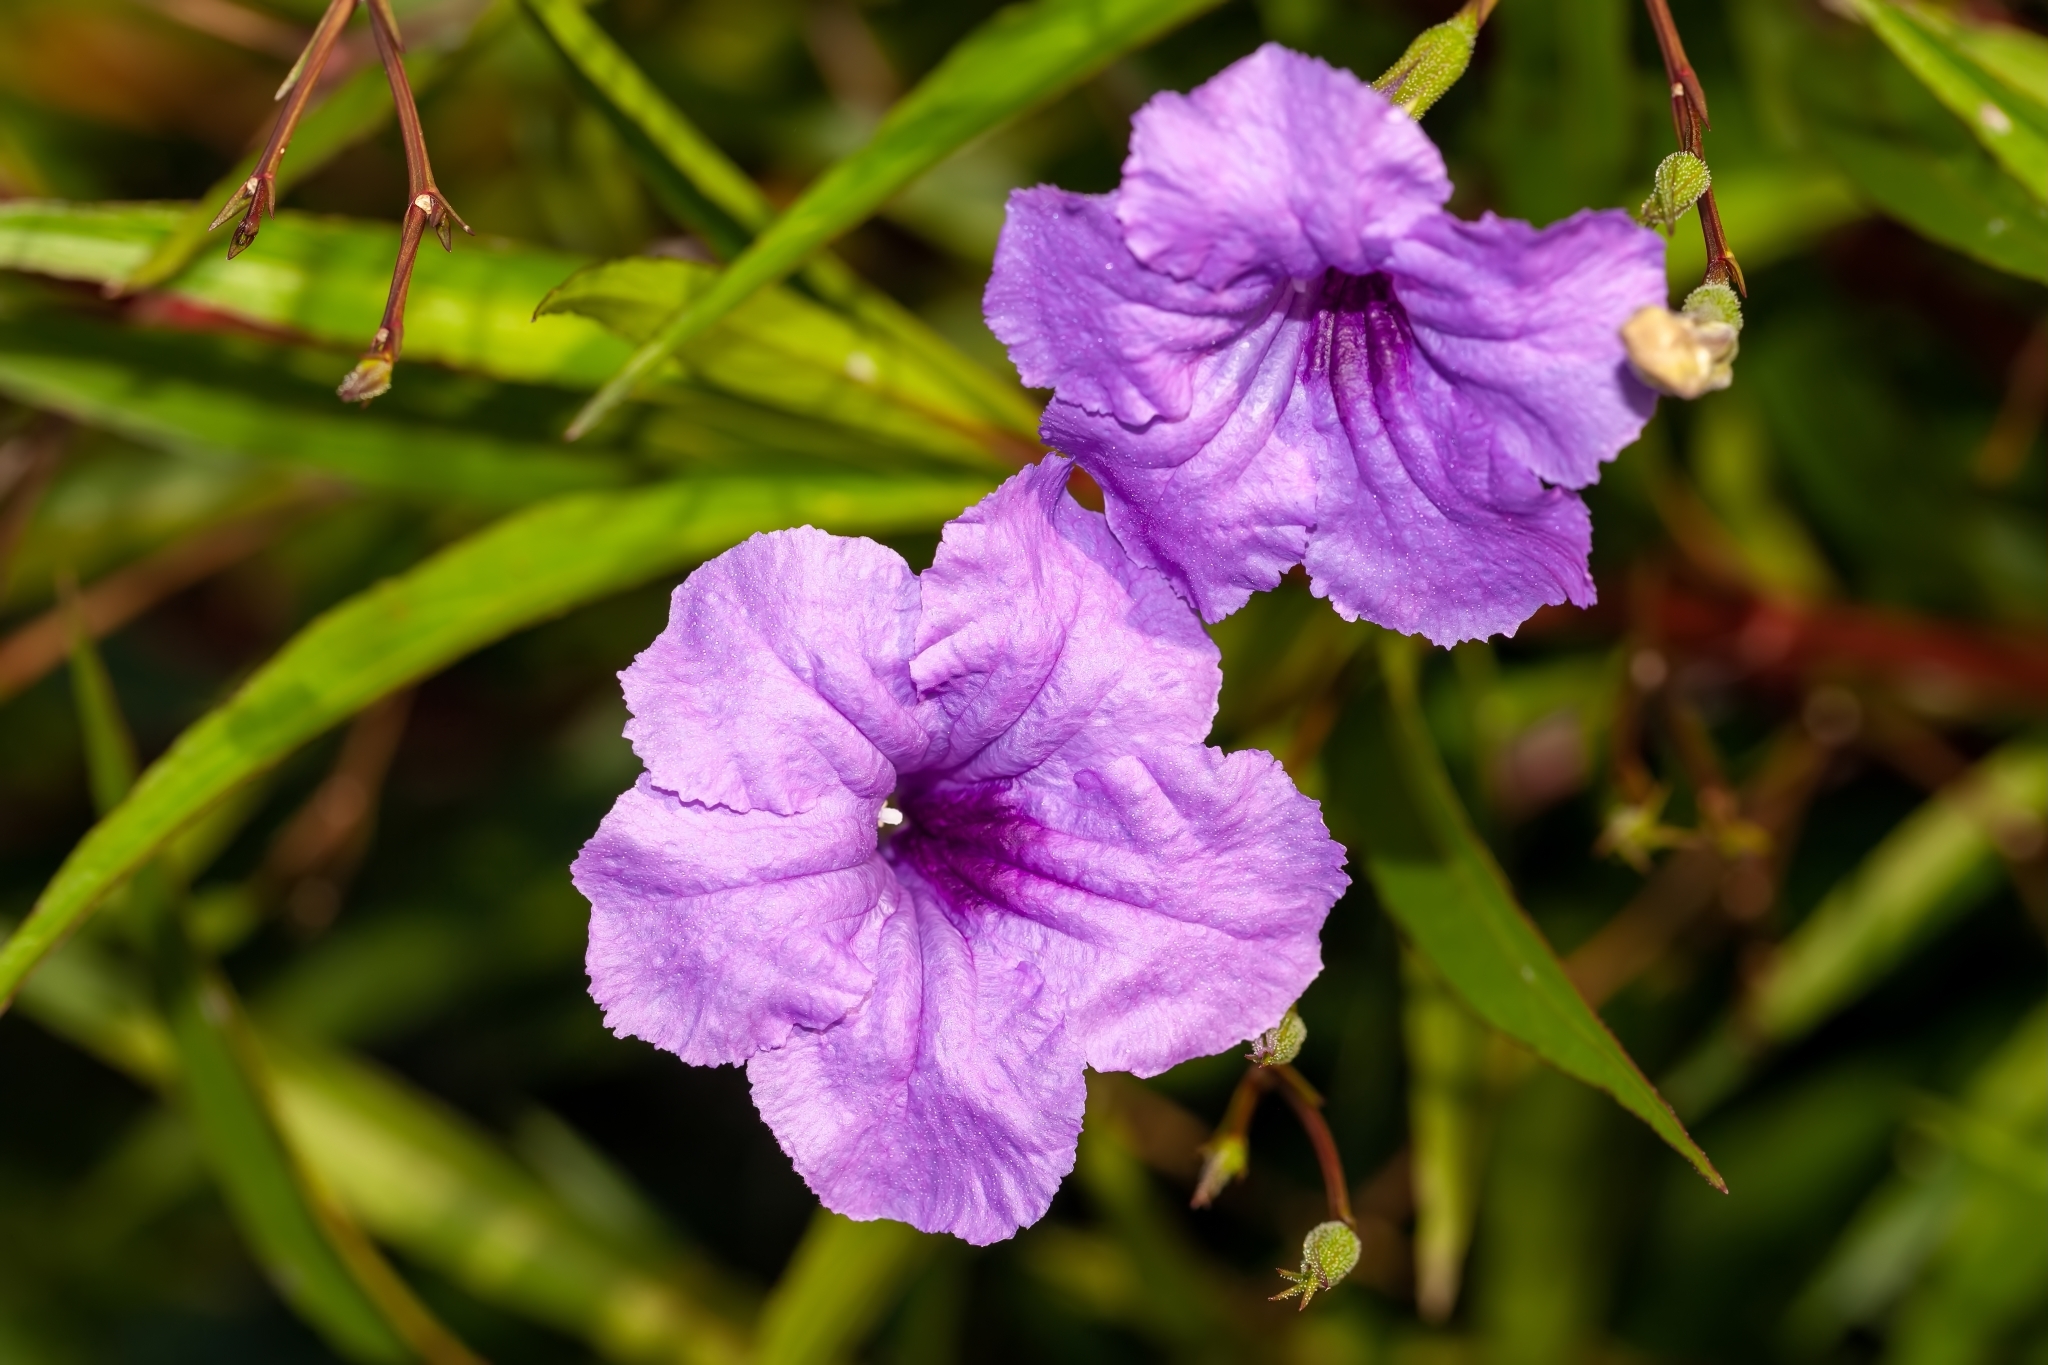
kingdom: Plantae
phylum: Tracheophyta
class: Magnoliopsida
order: Lamiales
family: Acanthaceae
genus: Ruellia
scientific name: Ruellia simplex
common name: Softseed wild petunia
